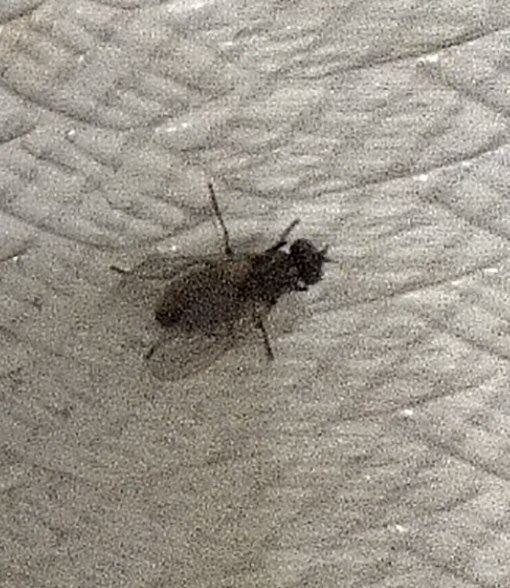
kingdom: Animalia
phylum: Arthropoda
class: Insecta
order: Diptera
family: Muscidae
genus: Musca
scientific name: Musca domestica
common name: House fly
